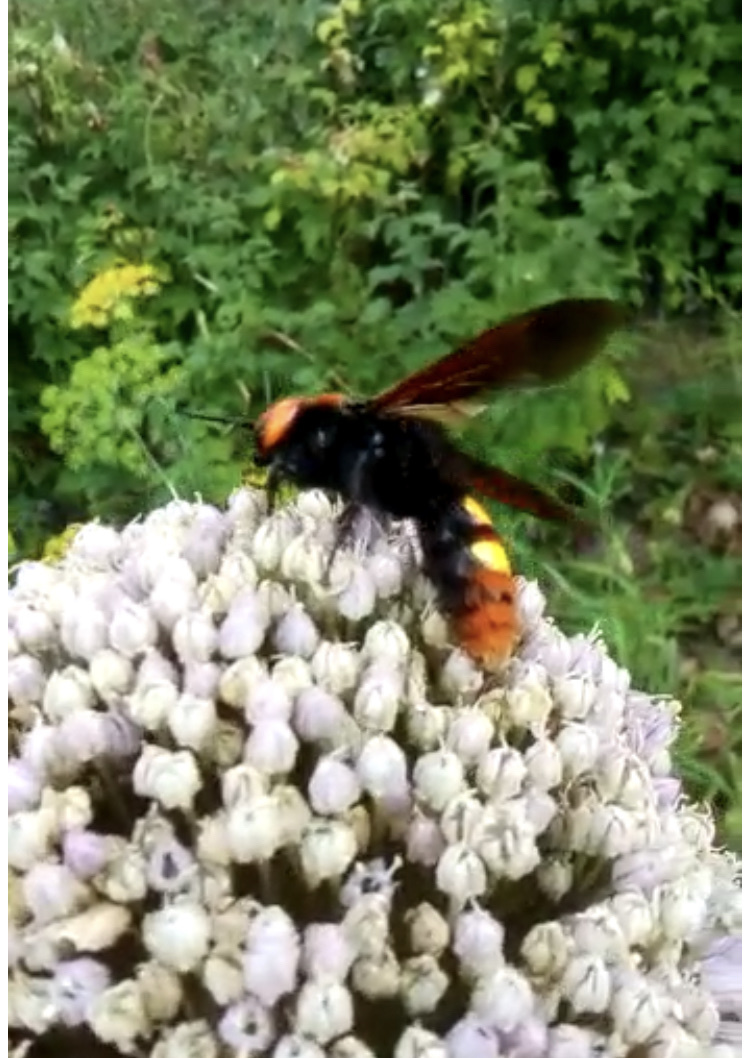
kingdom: Animalia
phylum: Arthropoda
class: Insecta
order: Hymenoptera
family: Scoliidae
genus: Megascolia
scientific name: Megascolia maculata
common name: Mammoth wasp
